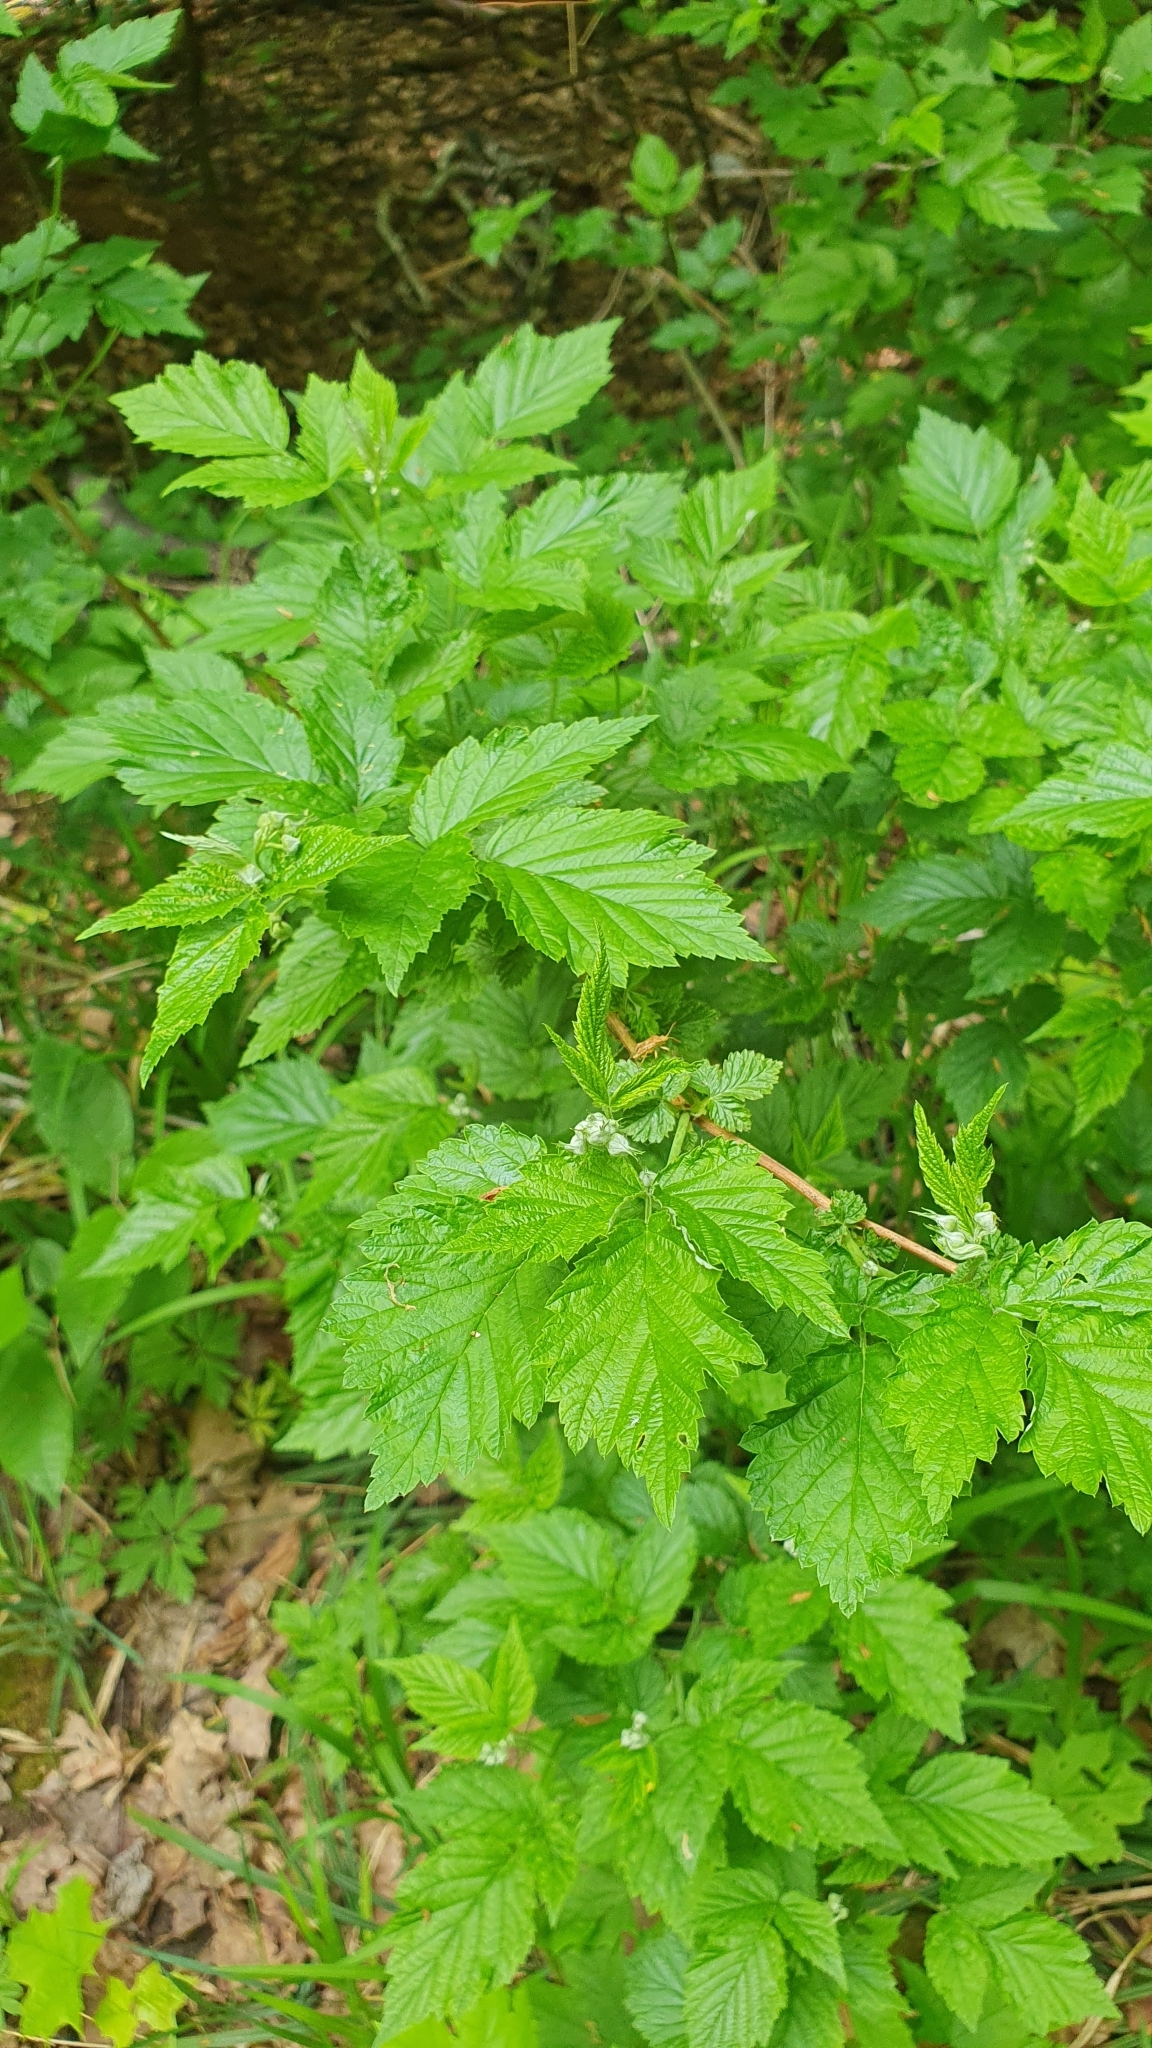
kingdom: Plantae
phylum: Tracheophyta
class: Magnoliopsida
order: Rosales
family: Rosaceae
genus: Rubus
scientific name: Rubus idaeus
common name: Raspberry
